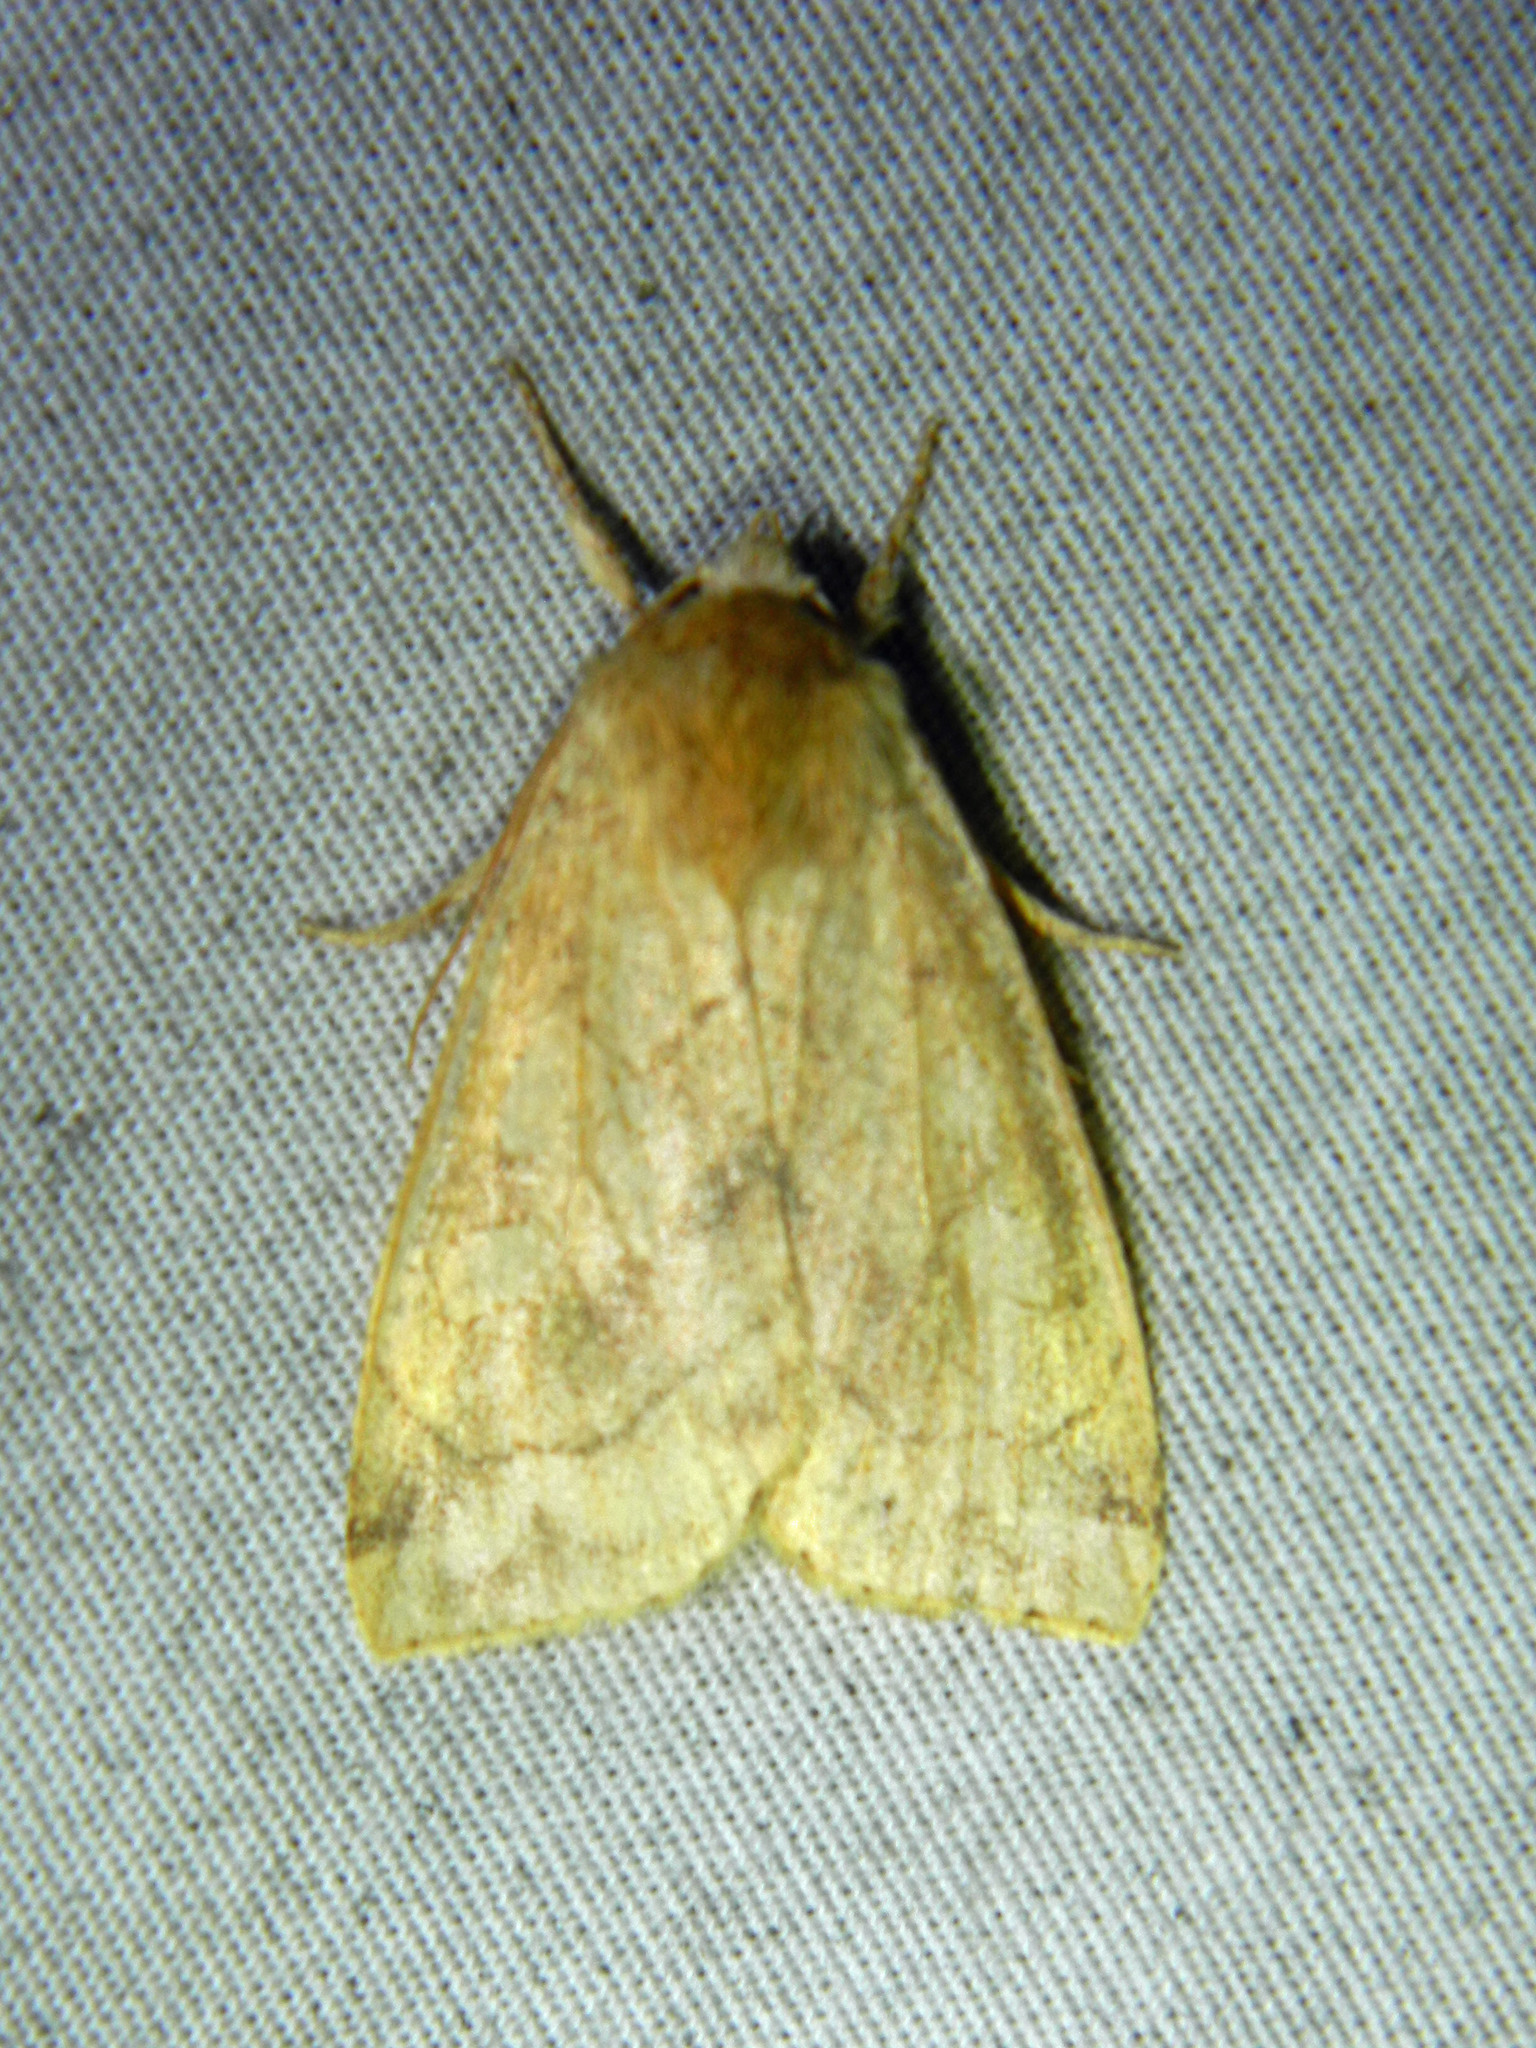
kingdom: Animalia
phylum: Arthropoda
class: Insecta
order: Lepidoptera
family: Noctuidae
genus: Enargia
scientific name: Enargia decolor
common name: Aspen twoleaf tier moth
